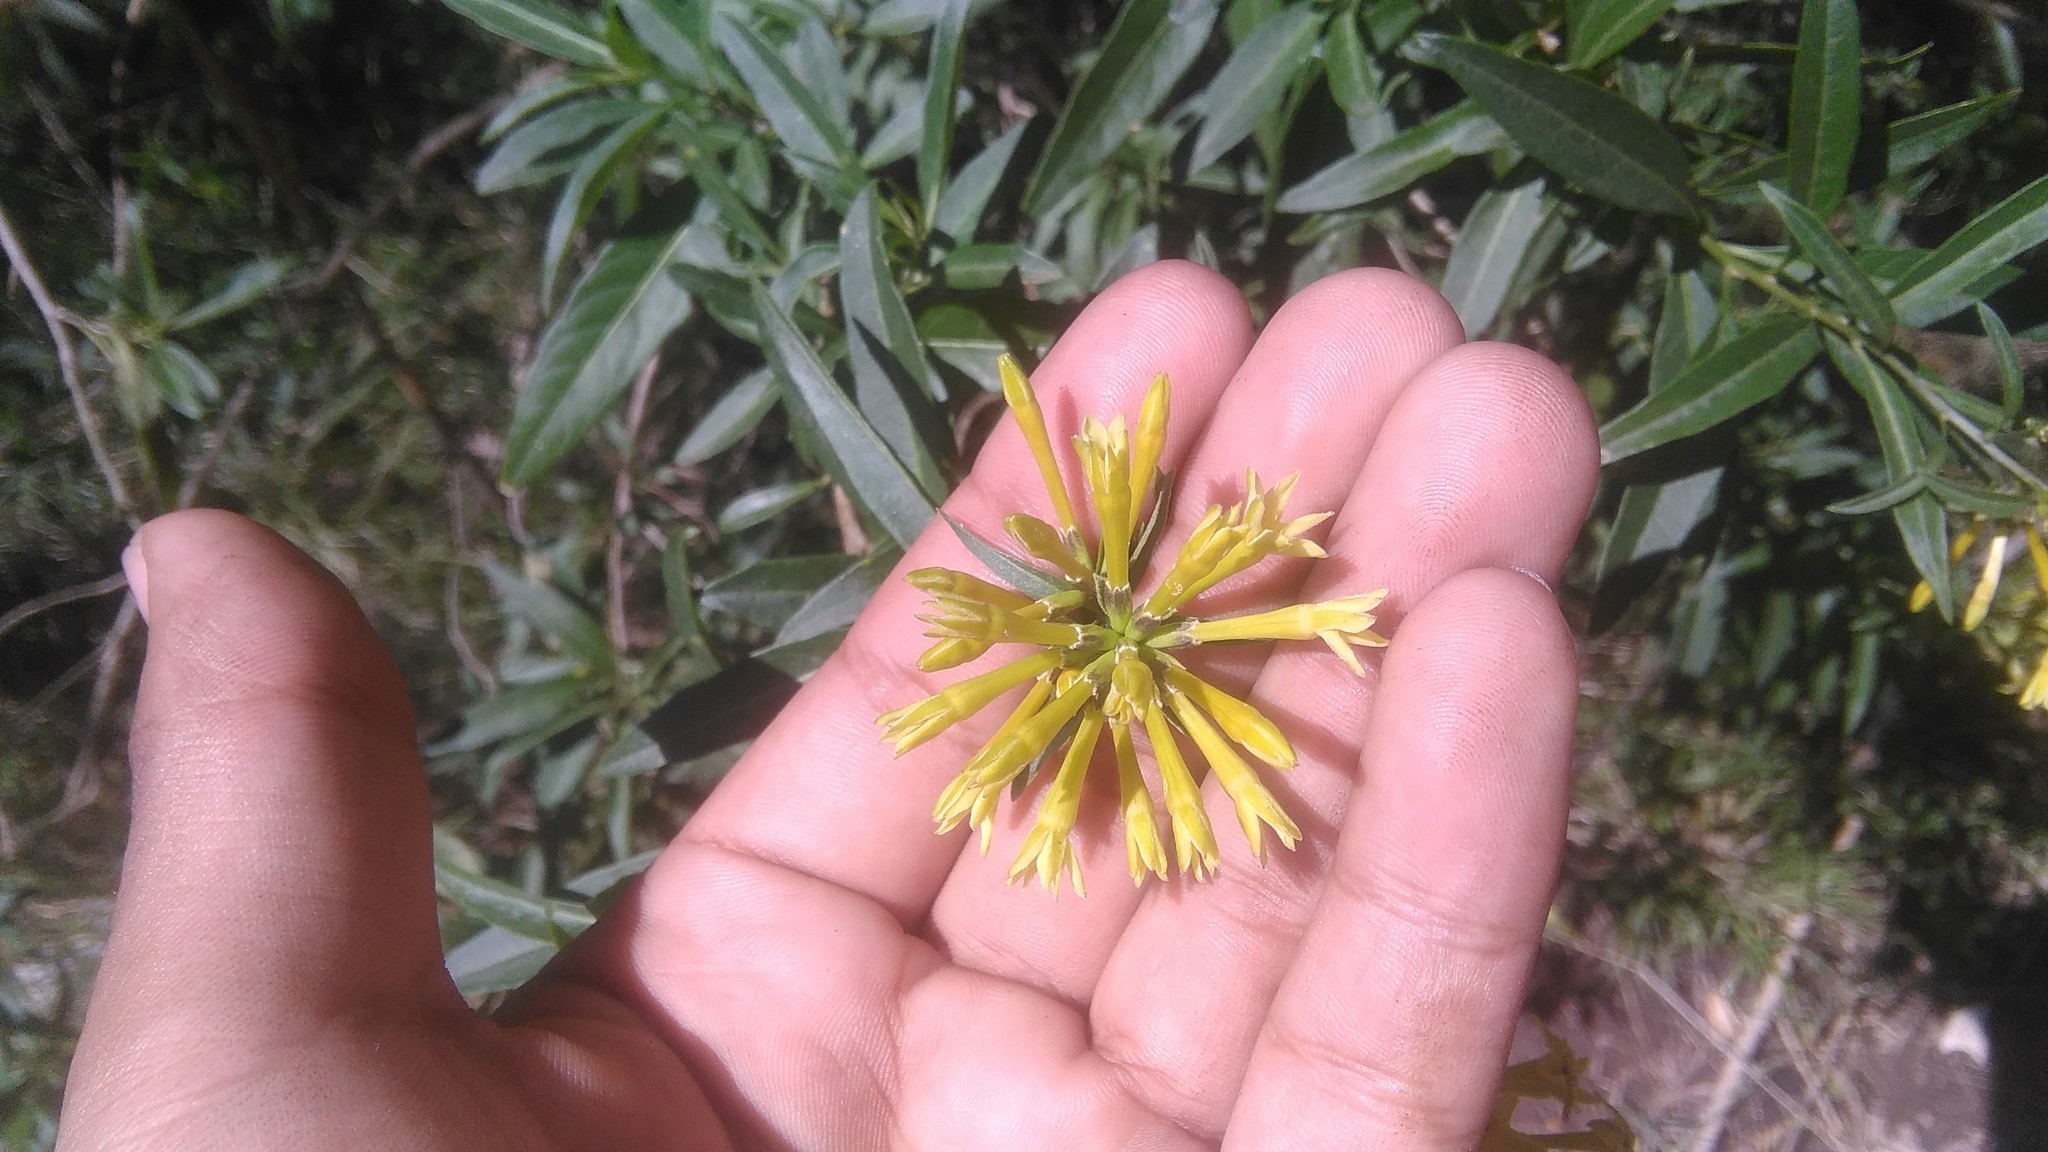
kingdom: Plantae
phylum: Tracheophyta
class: Magnoliopsida
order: Solanales
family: Solanaceae
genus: Cestrum
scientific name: Cestrum parqui
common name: Chilean cestrum
